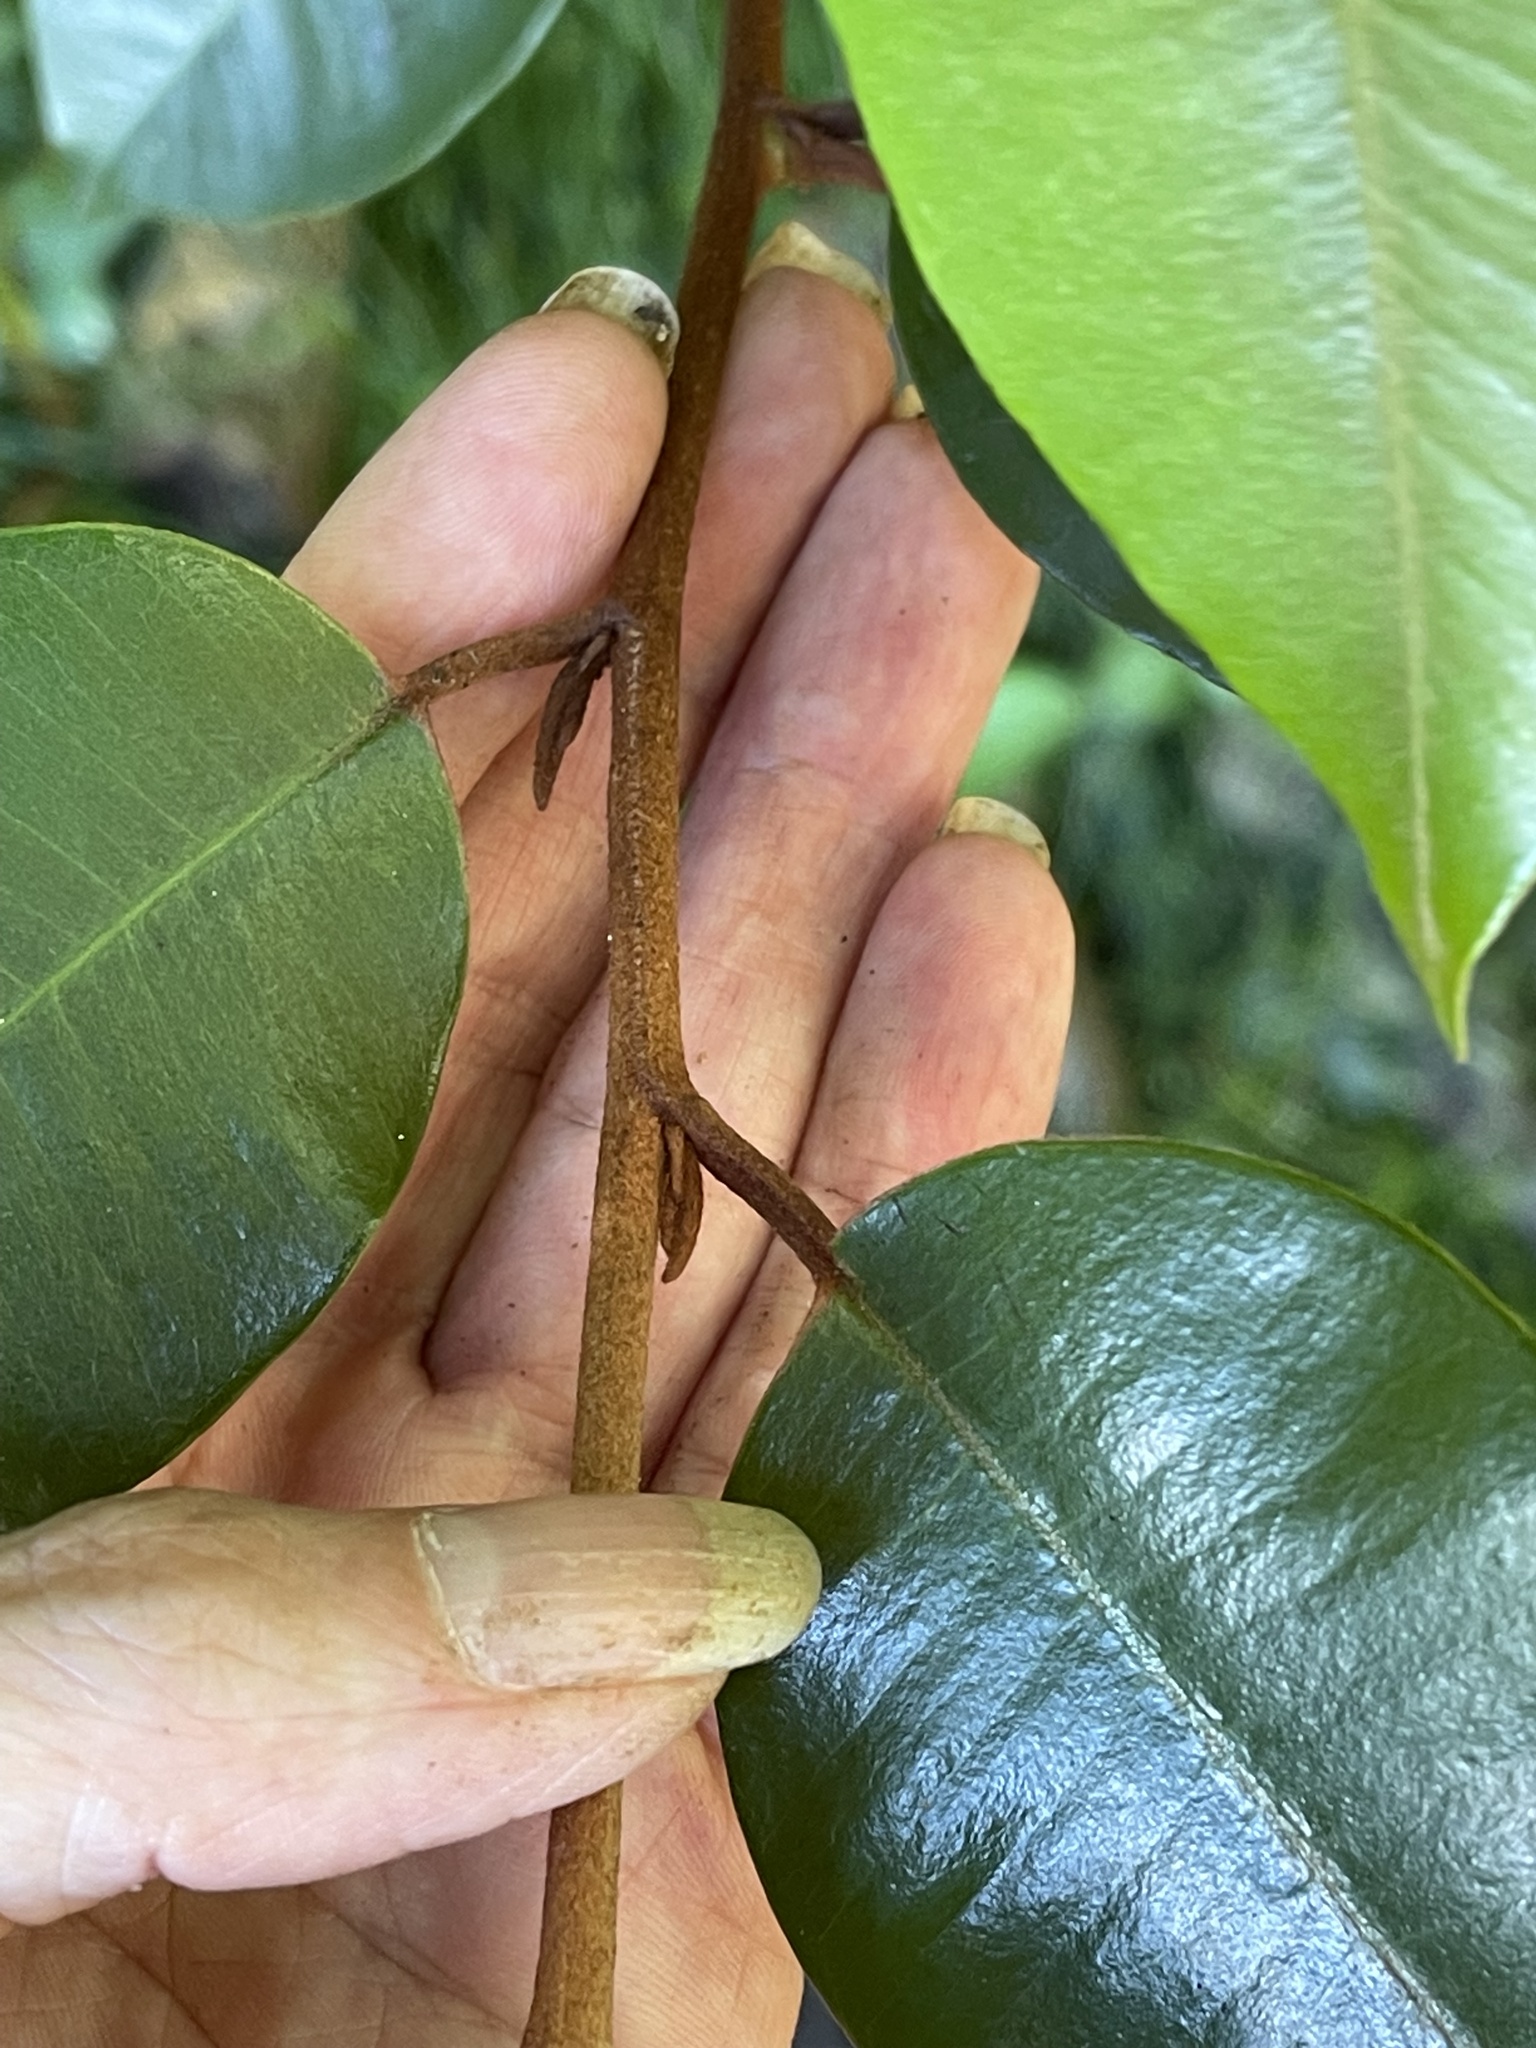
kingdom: Plantae
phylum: Tracheophyta
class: Magnoliopsida
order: Ericales
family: Sapotaceae
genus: Chrysophyllum
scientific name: Chrysophyllum oliviforme
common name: Satinleaf
